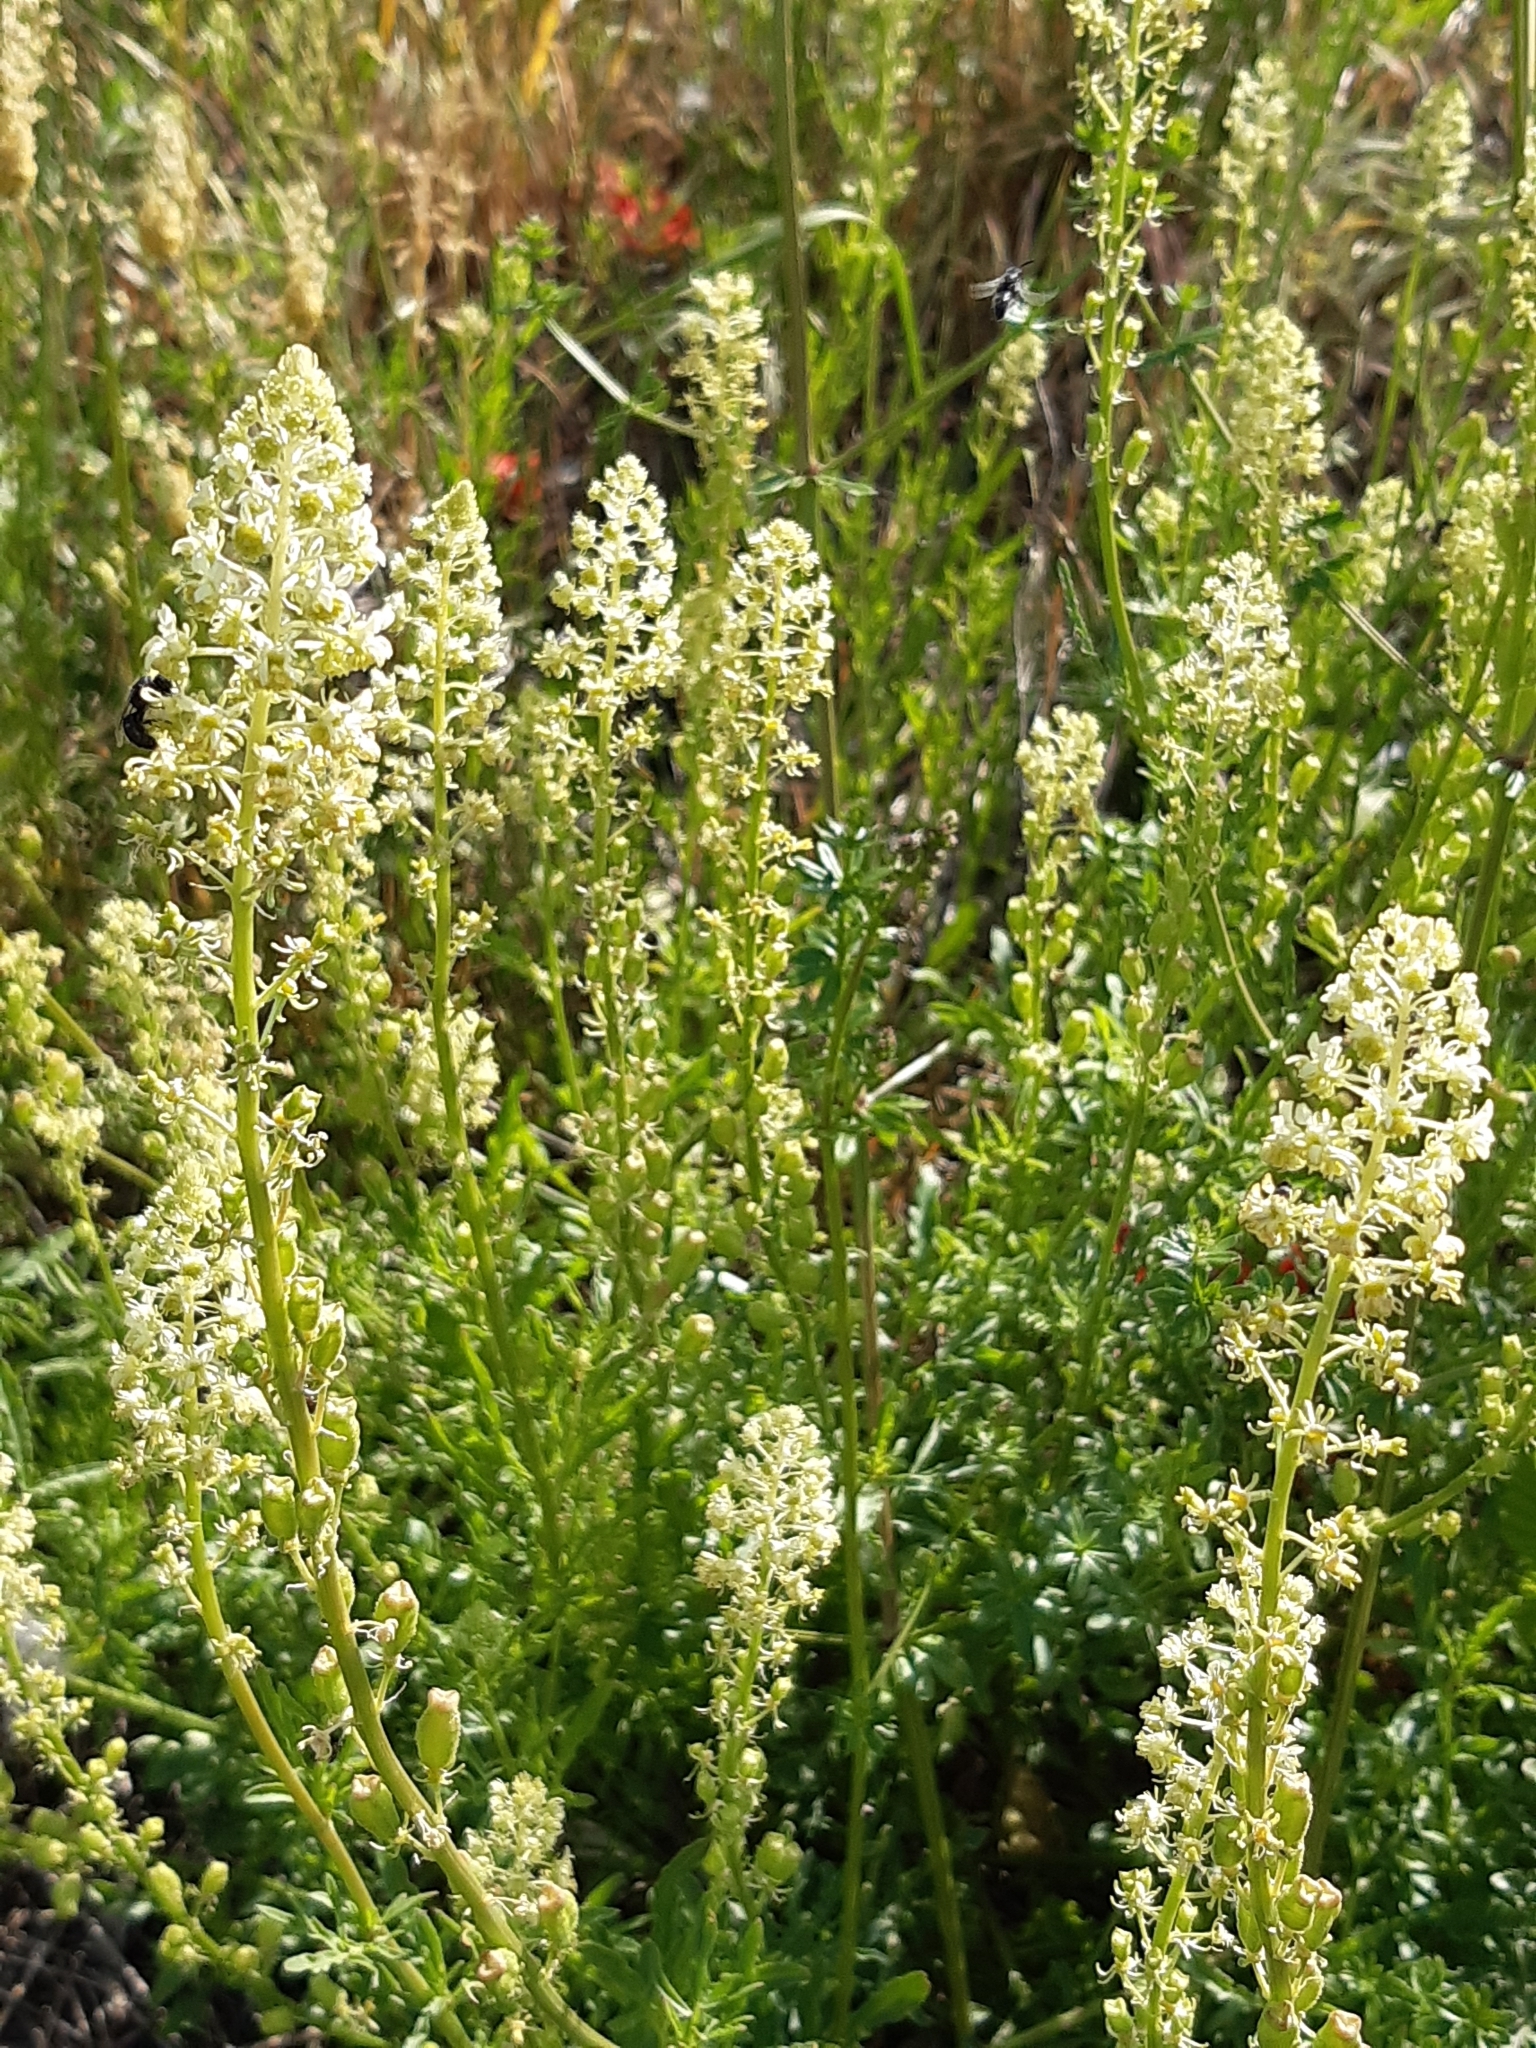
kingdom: Plantae
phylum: Tracheophyta
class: Magnoliopsida
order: Brassicales
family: Resedaceae
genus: Reseda
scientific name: Reseda lutea
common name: Wild mignonette
